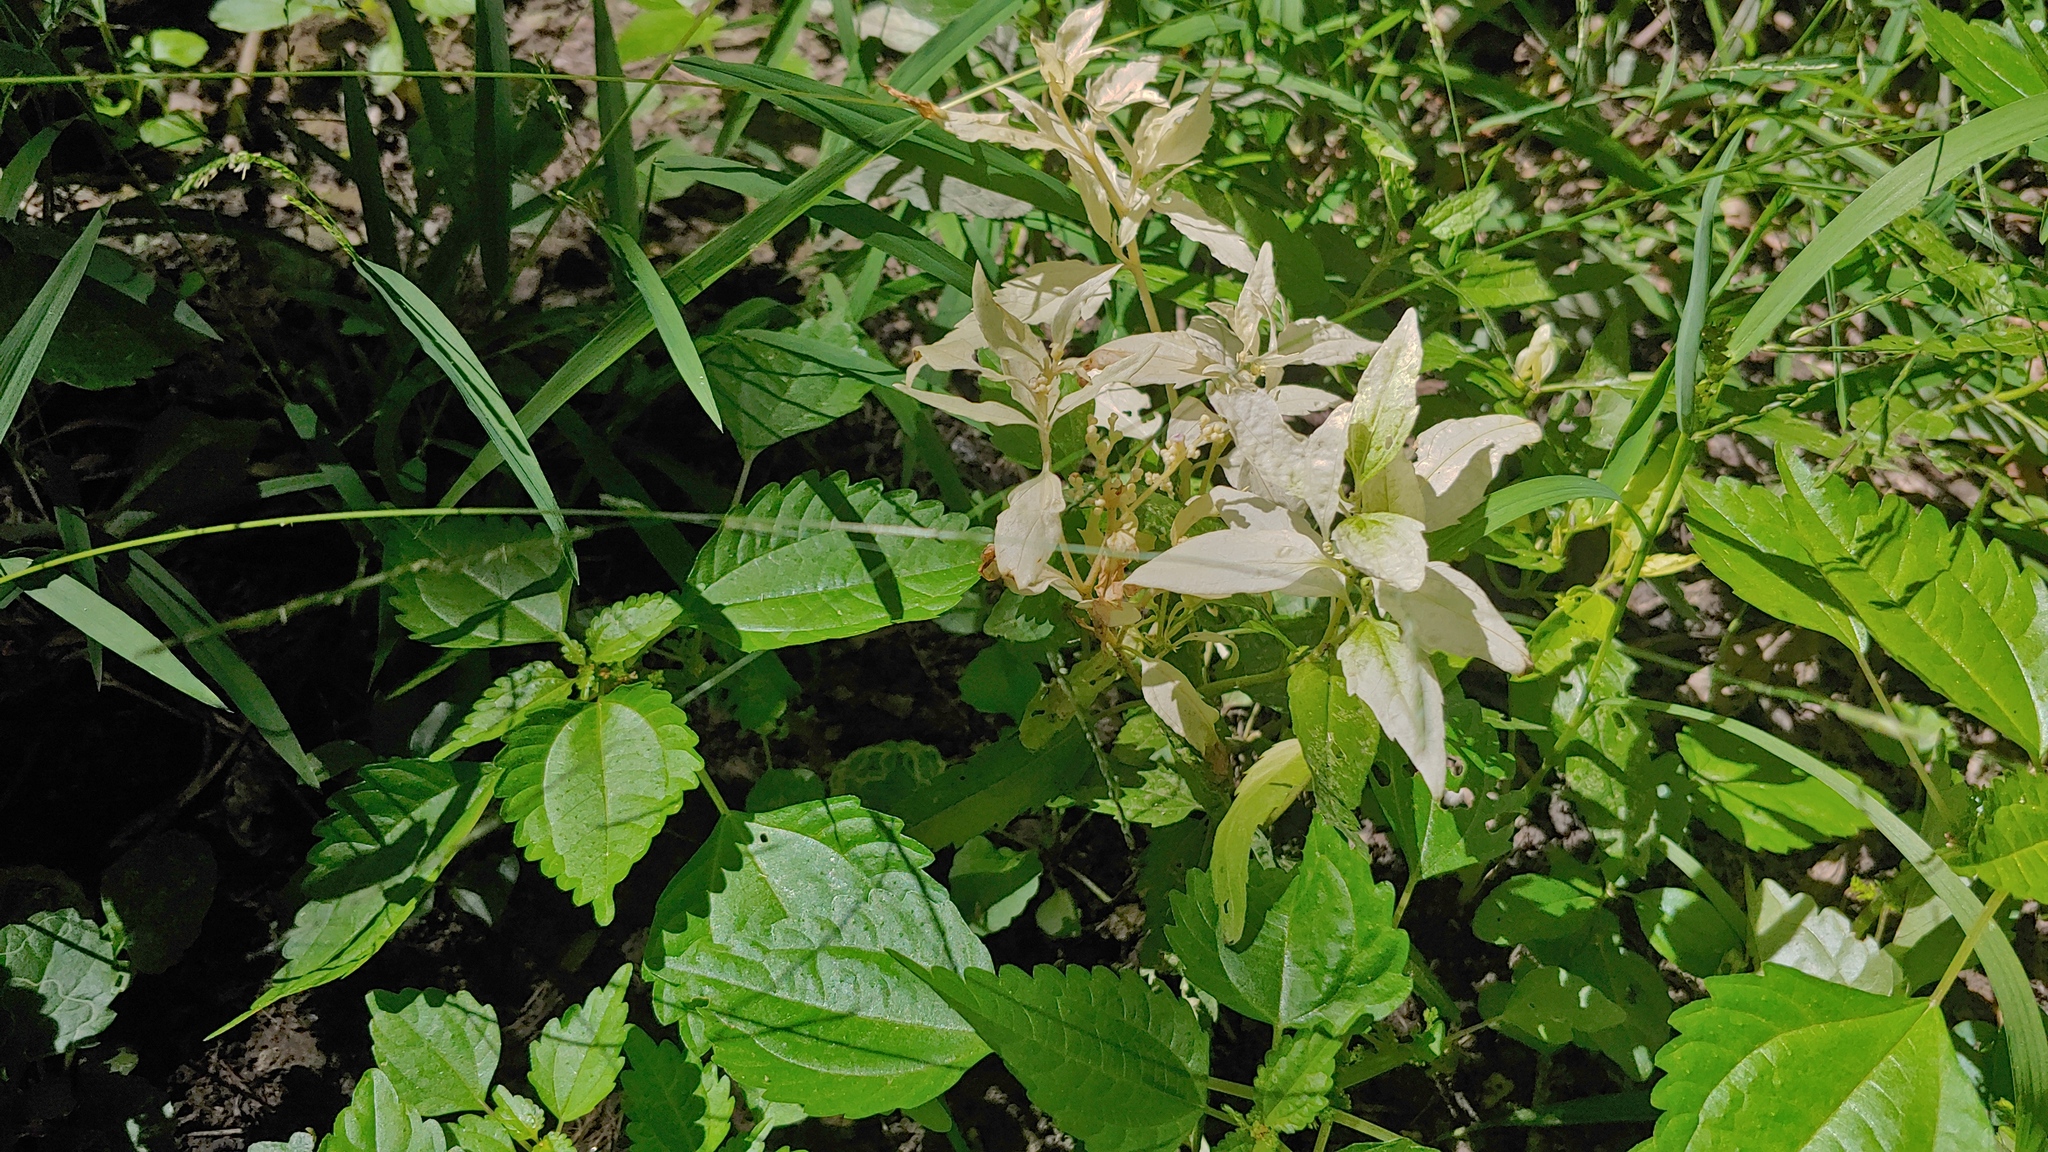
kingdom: Plantae
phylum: Tracheophyta
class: Magnoliopsida
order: Rosales
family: Urticaceae
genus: Pilea
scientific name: Pilea pumila
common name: Clearweed
